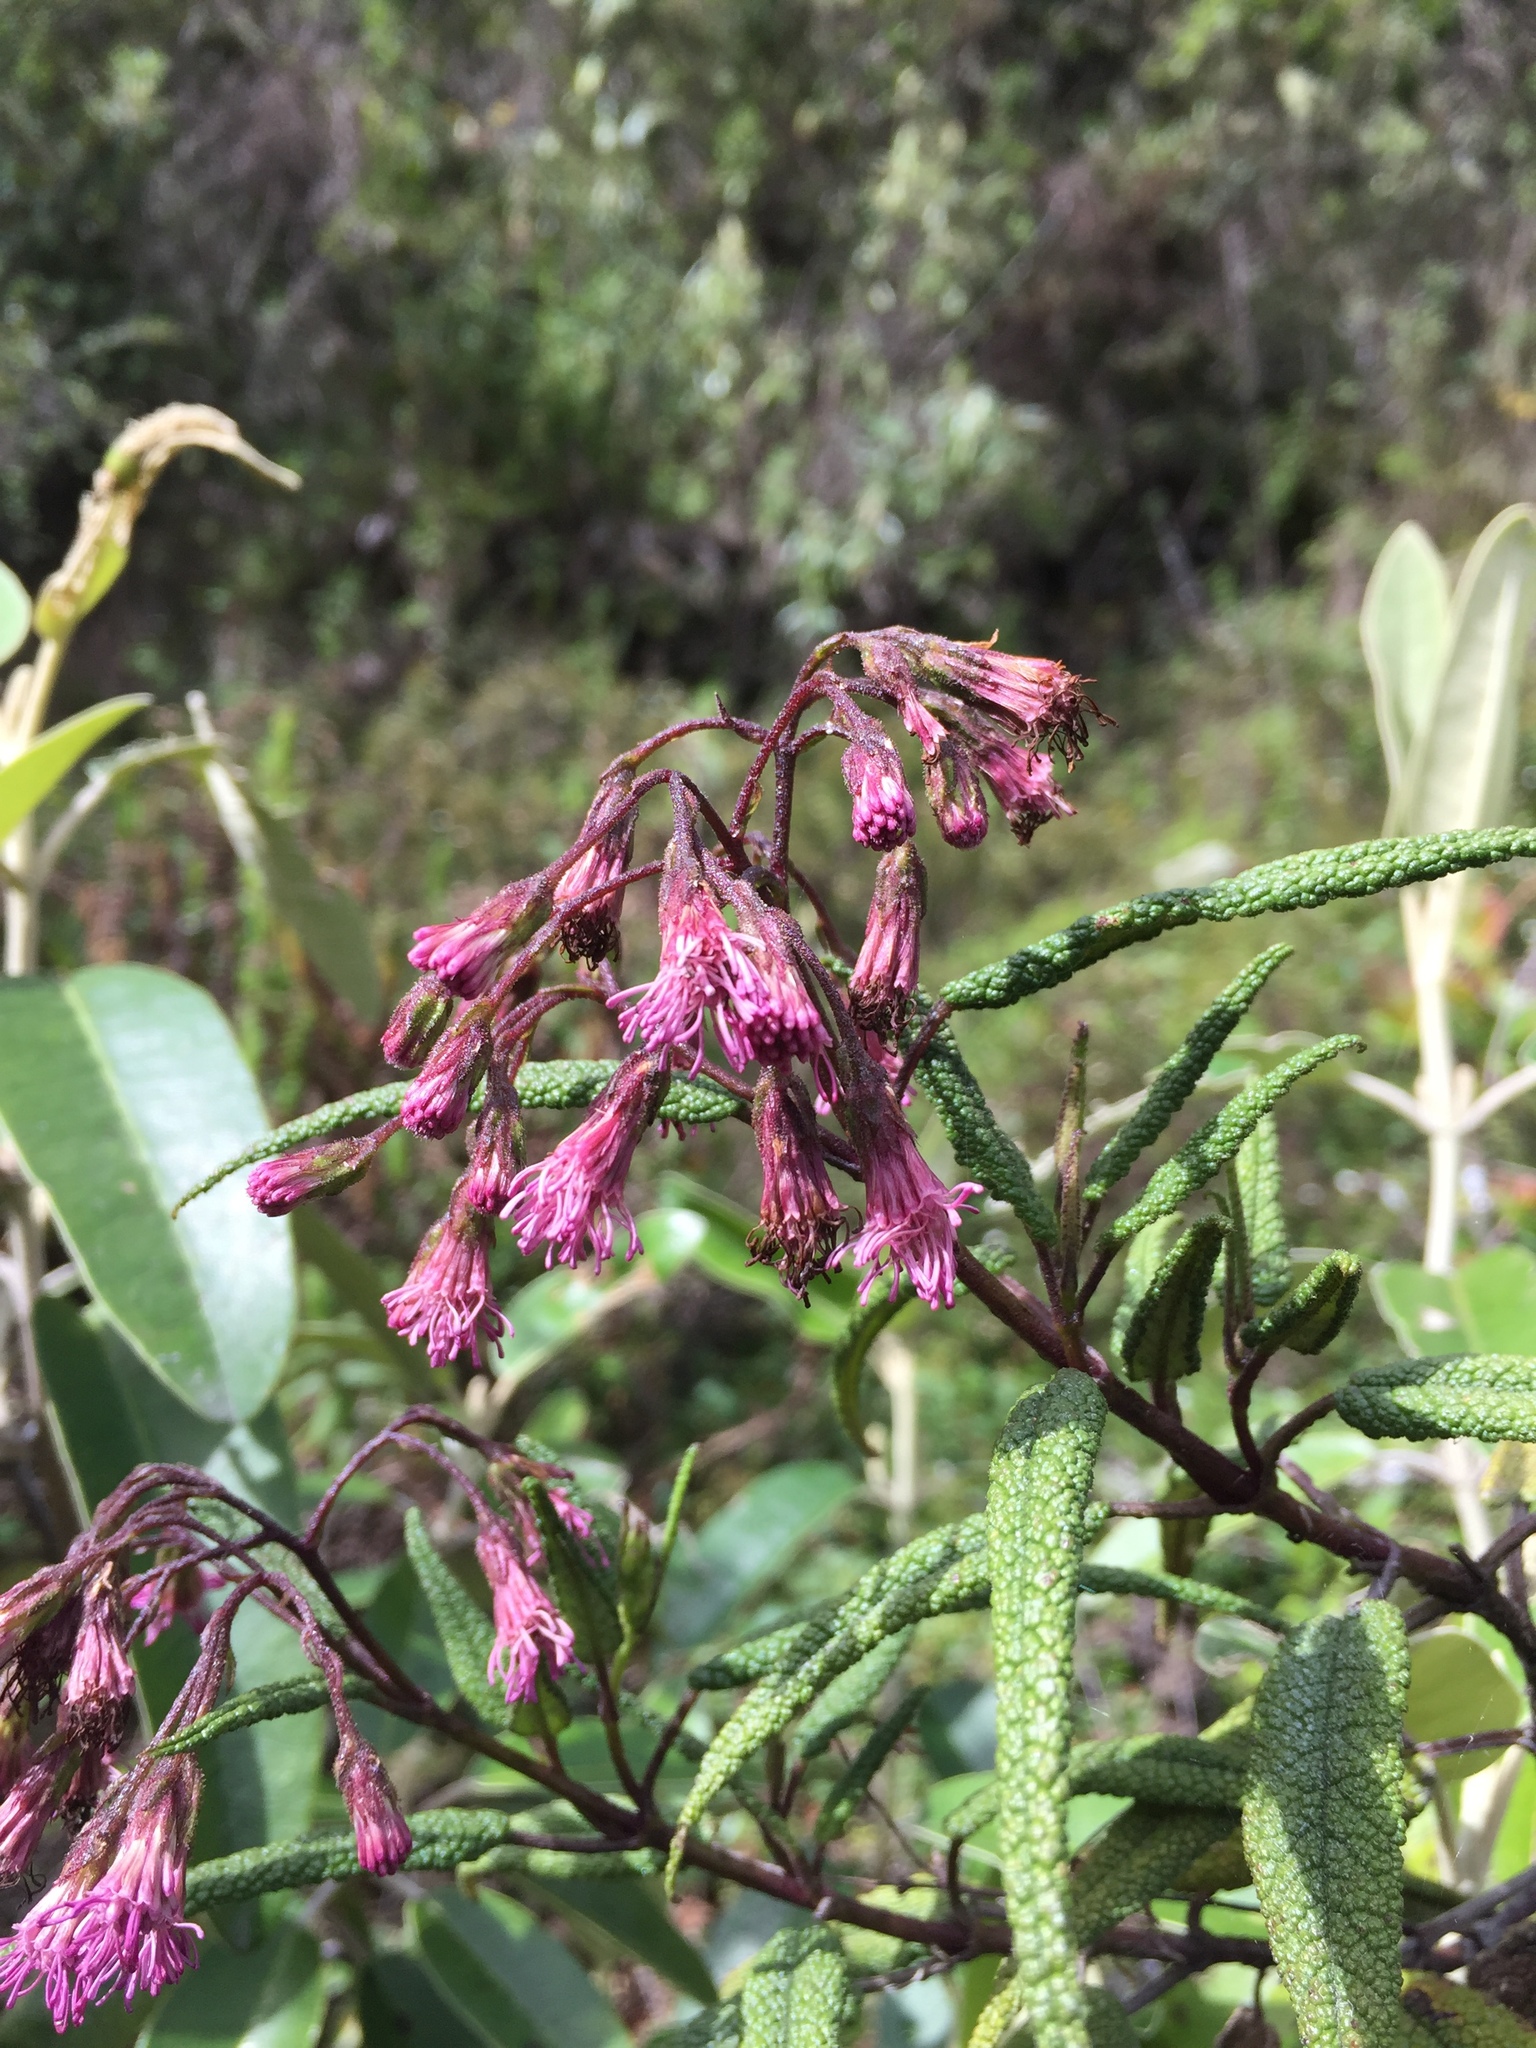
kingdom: Plantae
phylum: Tracheophyta
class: Magnoliopsida
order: Asterales
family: Asteraceae
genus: Aristeguietia
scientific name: Aristeguietia glutinosa
